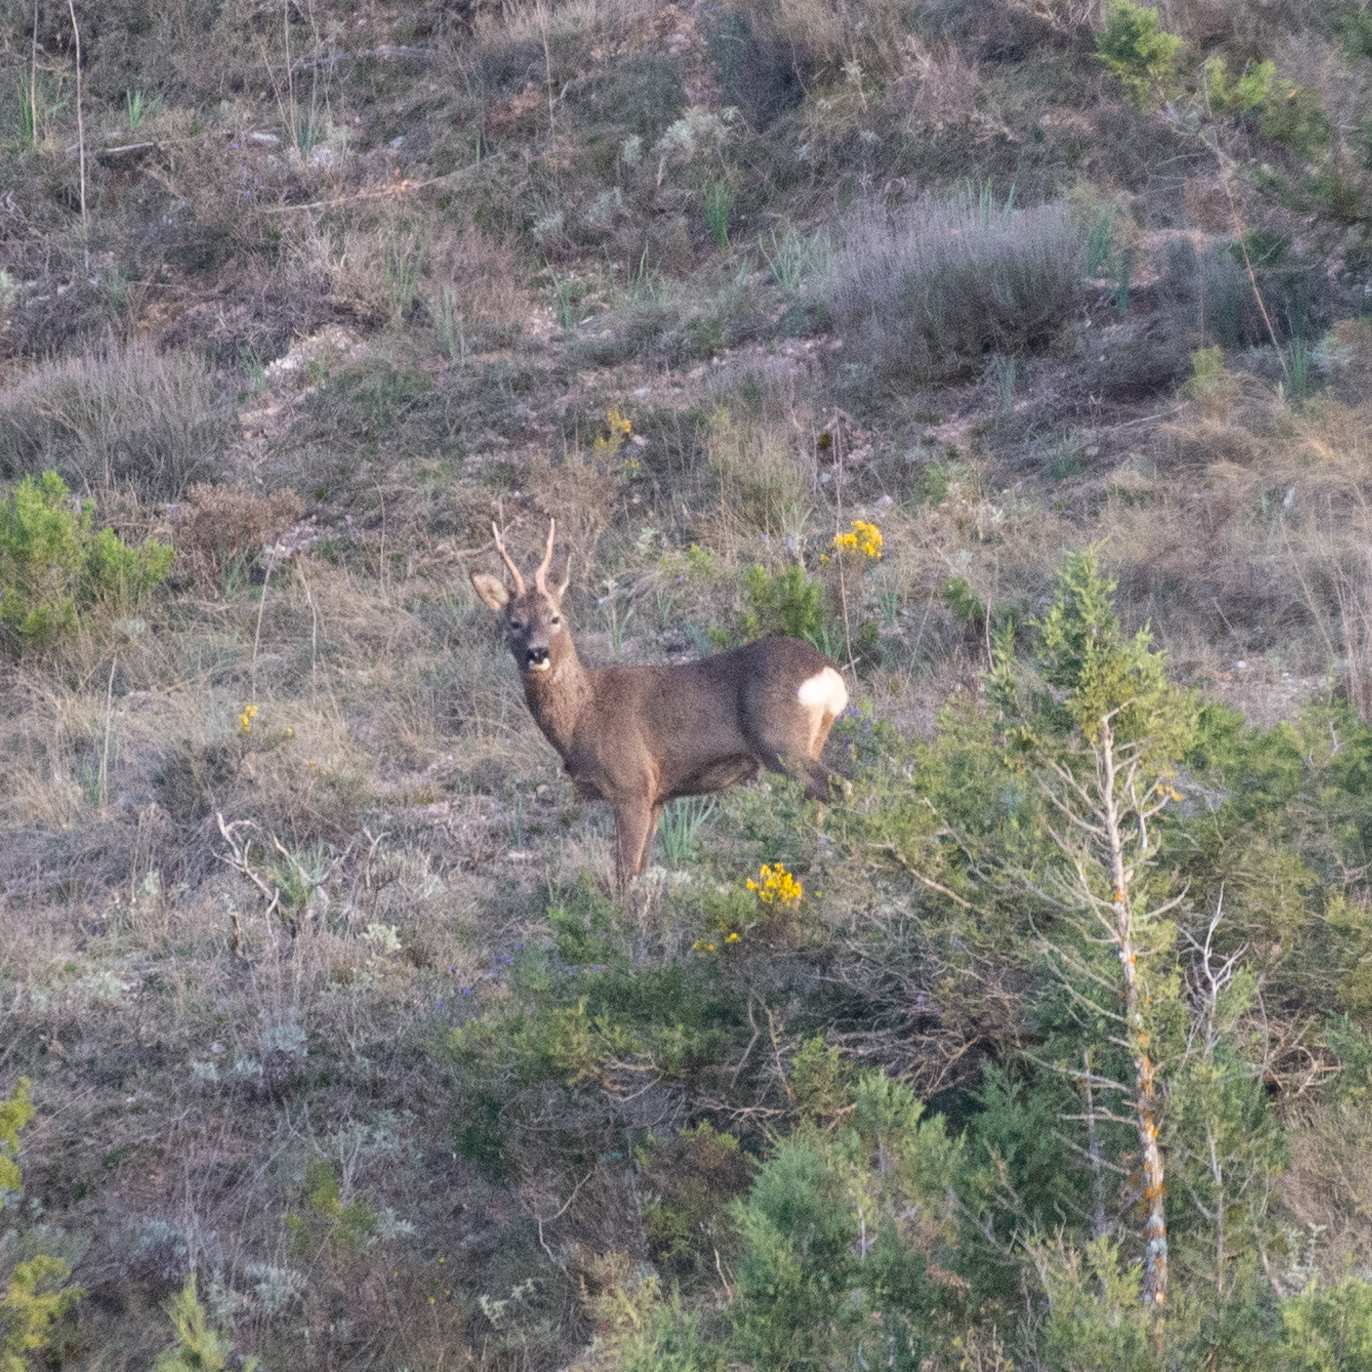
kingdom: Animalia
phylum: Chordata
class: Mammalia
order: Artiodactyla
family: Cervidae
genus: Capreolus
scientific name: Capreolus capreolus
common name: Western roe deer
